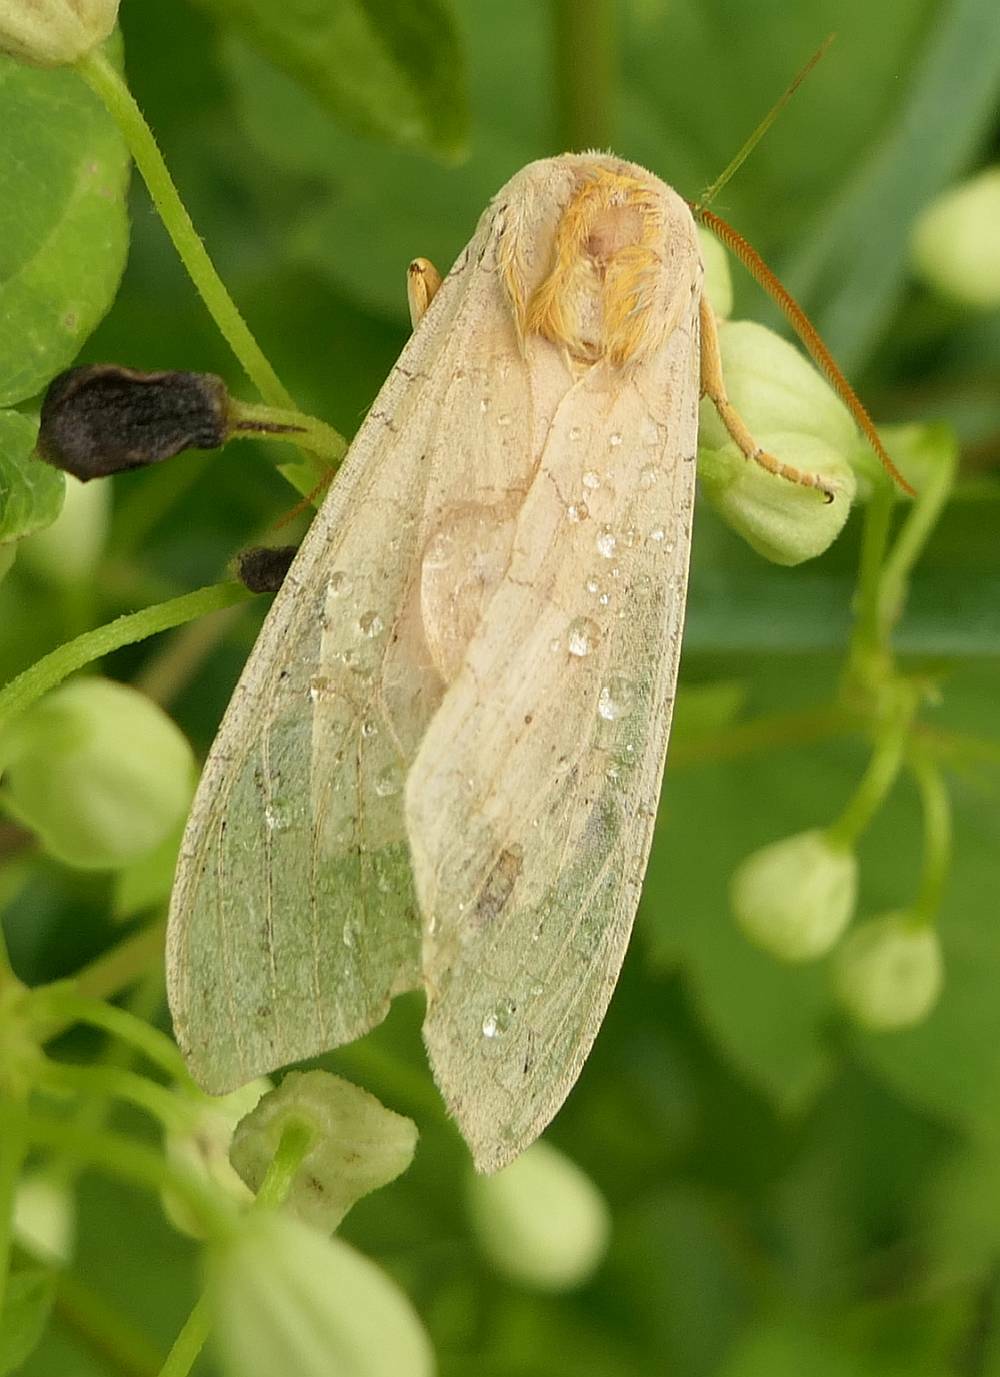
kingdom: Animalia
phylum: Arthropoda
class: Insecta
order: Lepidoptera
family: Erebidae
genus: Halysidota
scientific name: Halysidota tessellaris
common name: Banded tussock moth
